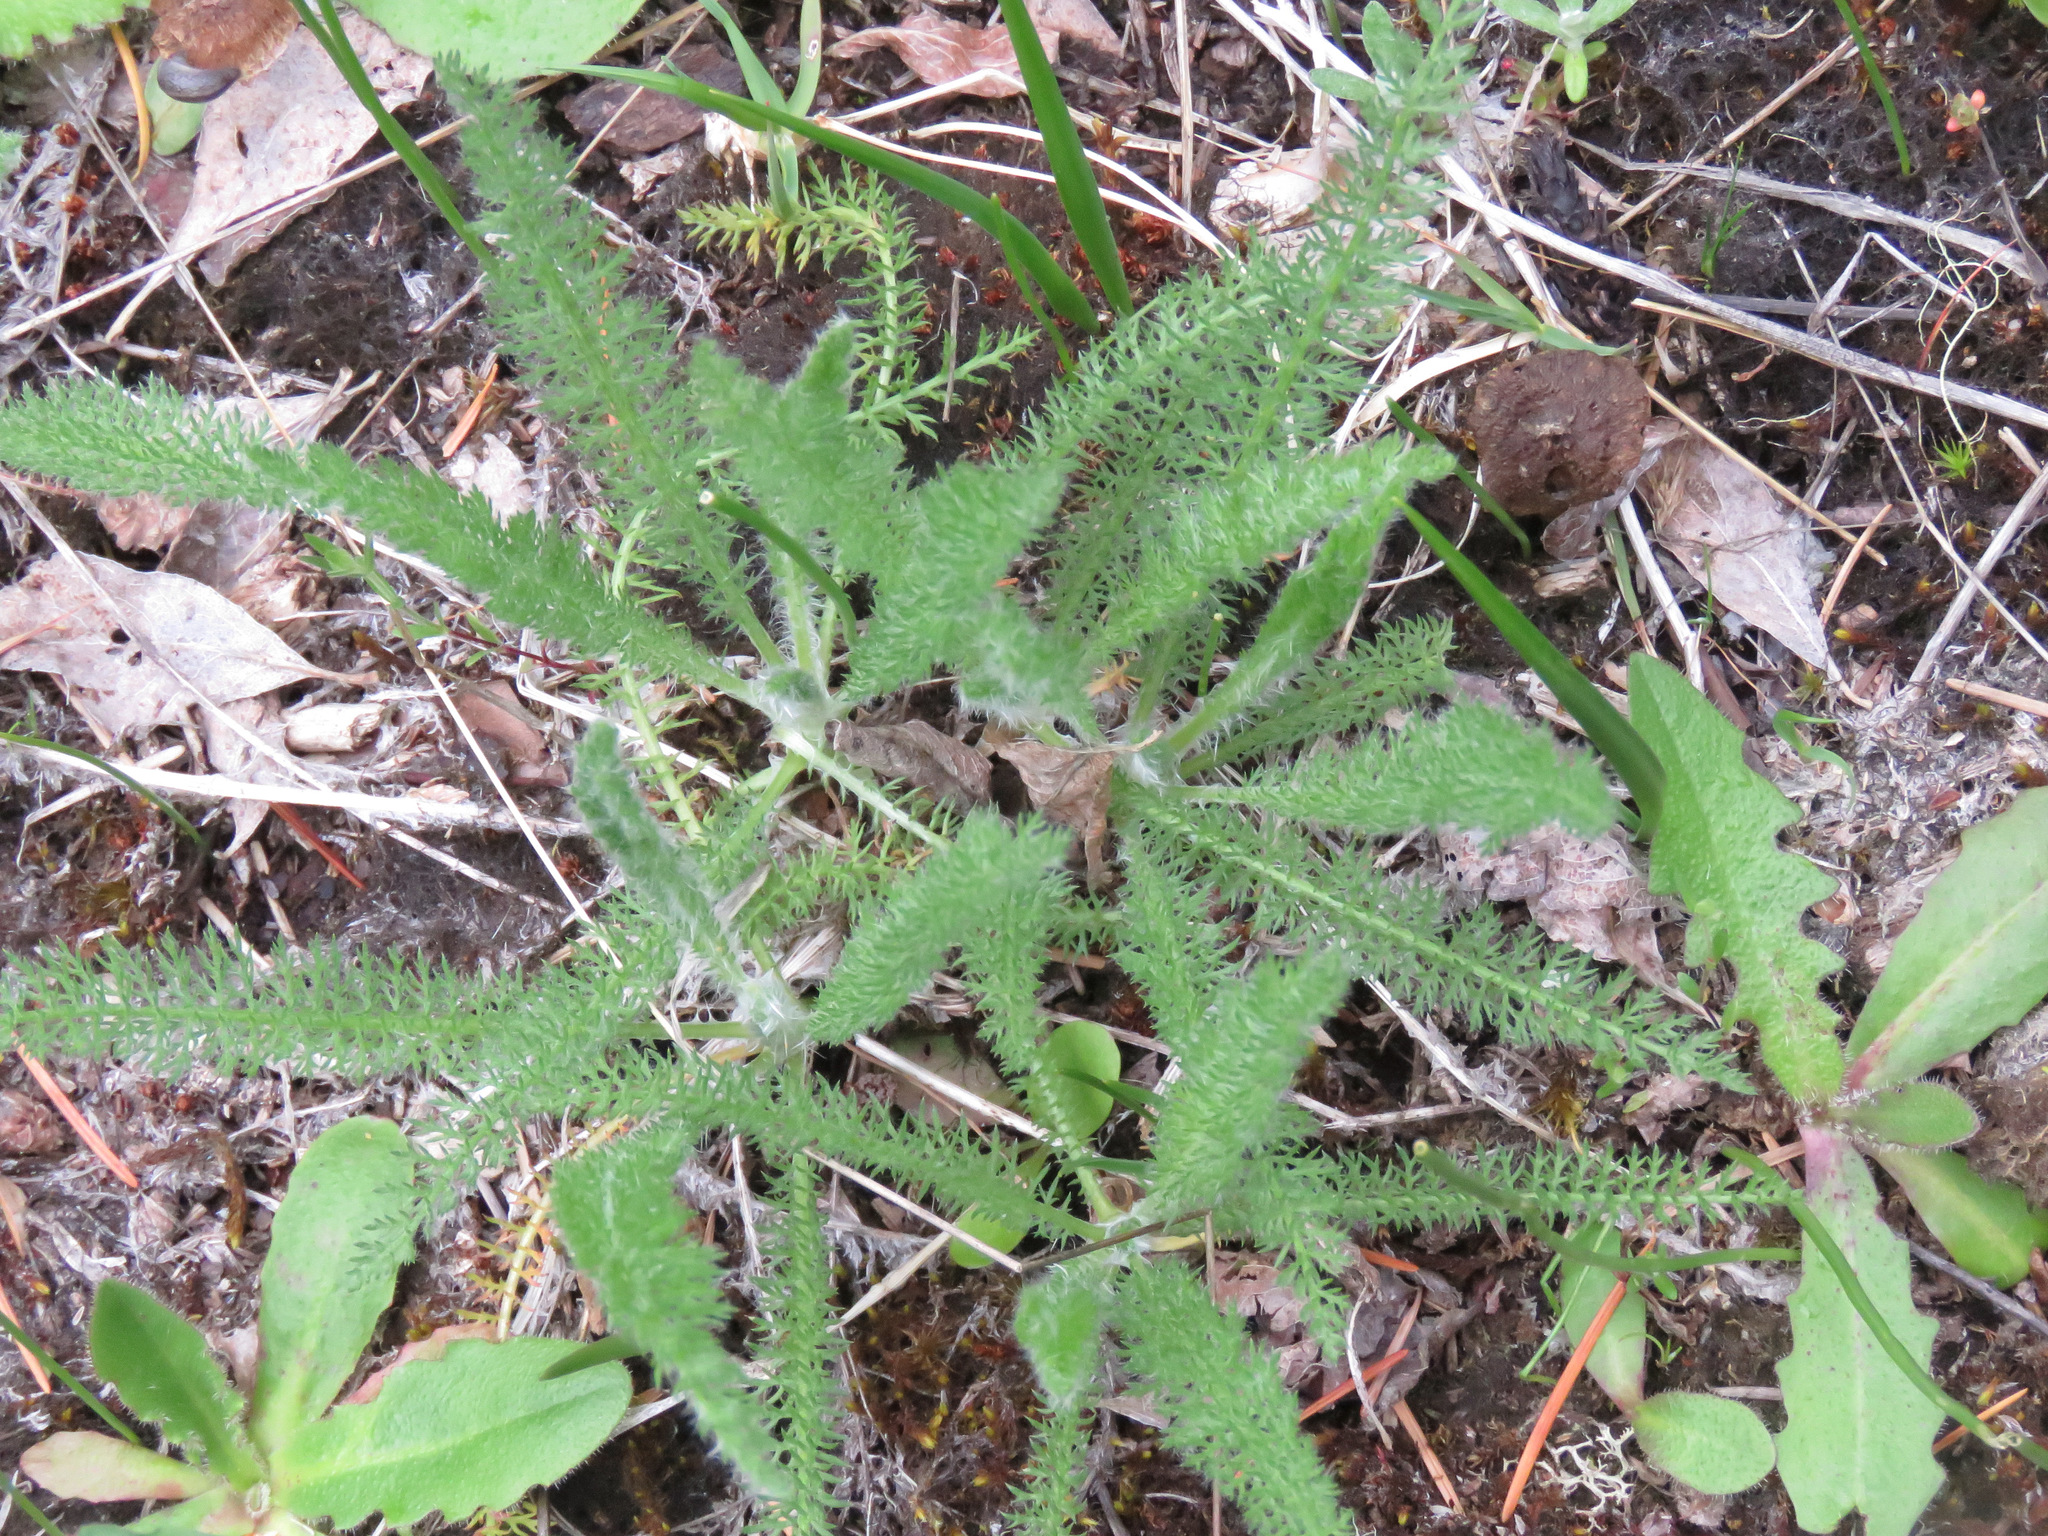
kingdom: Plantae
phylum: Tracheophyta
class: Magnoliopsida
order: Asterales
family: Asteraceae
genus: Achillea
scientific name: Achillea millefolium
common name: Yarrow
